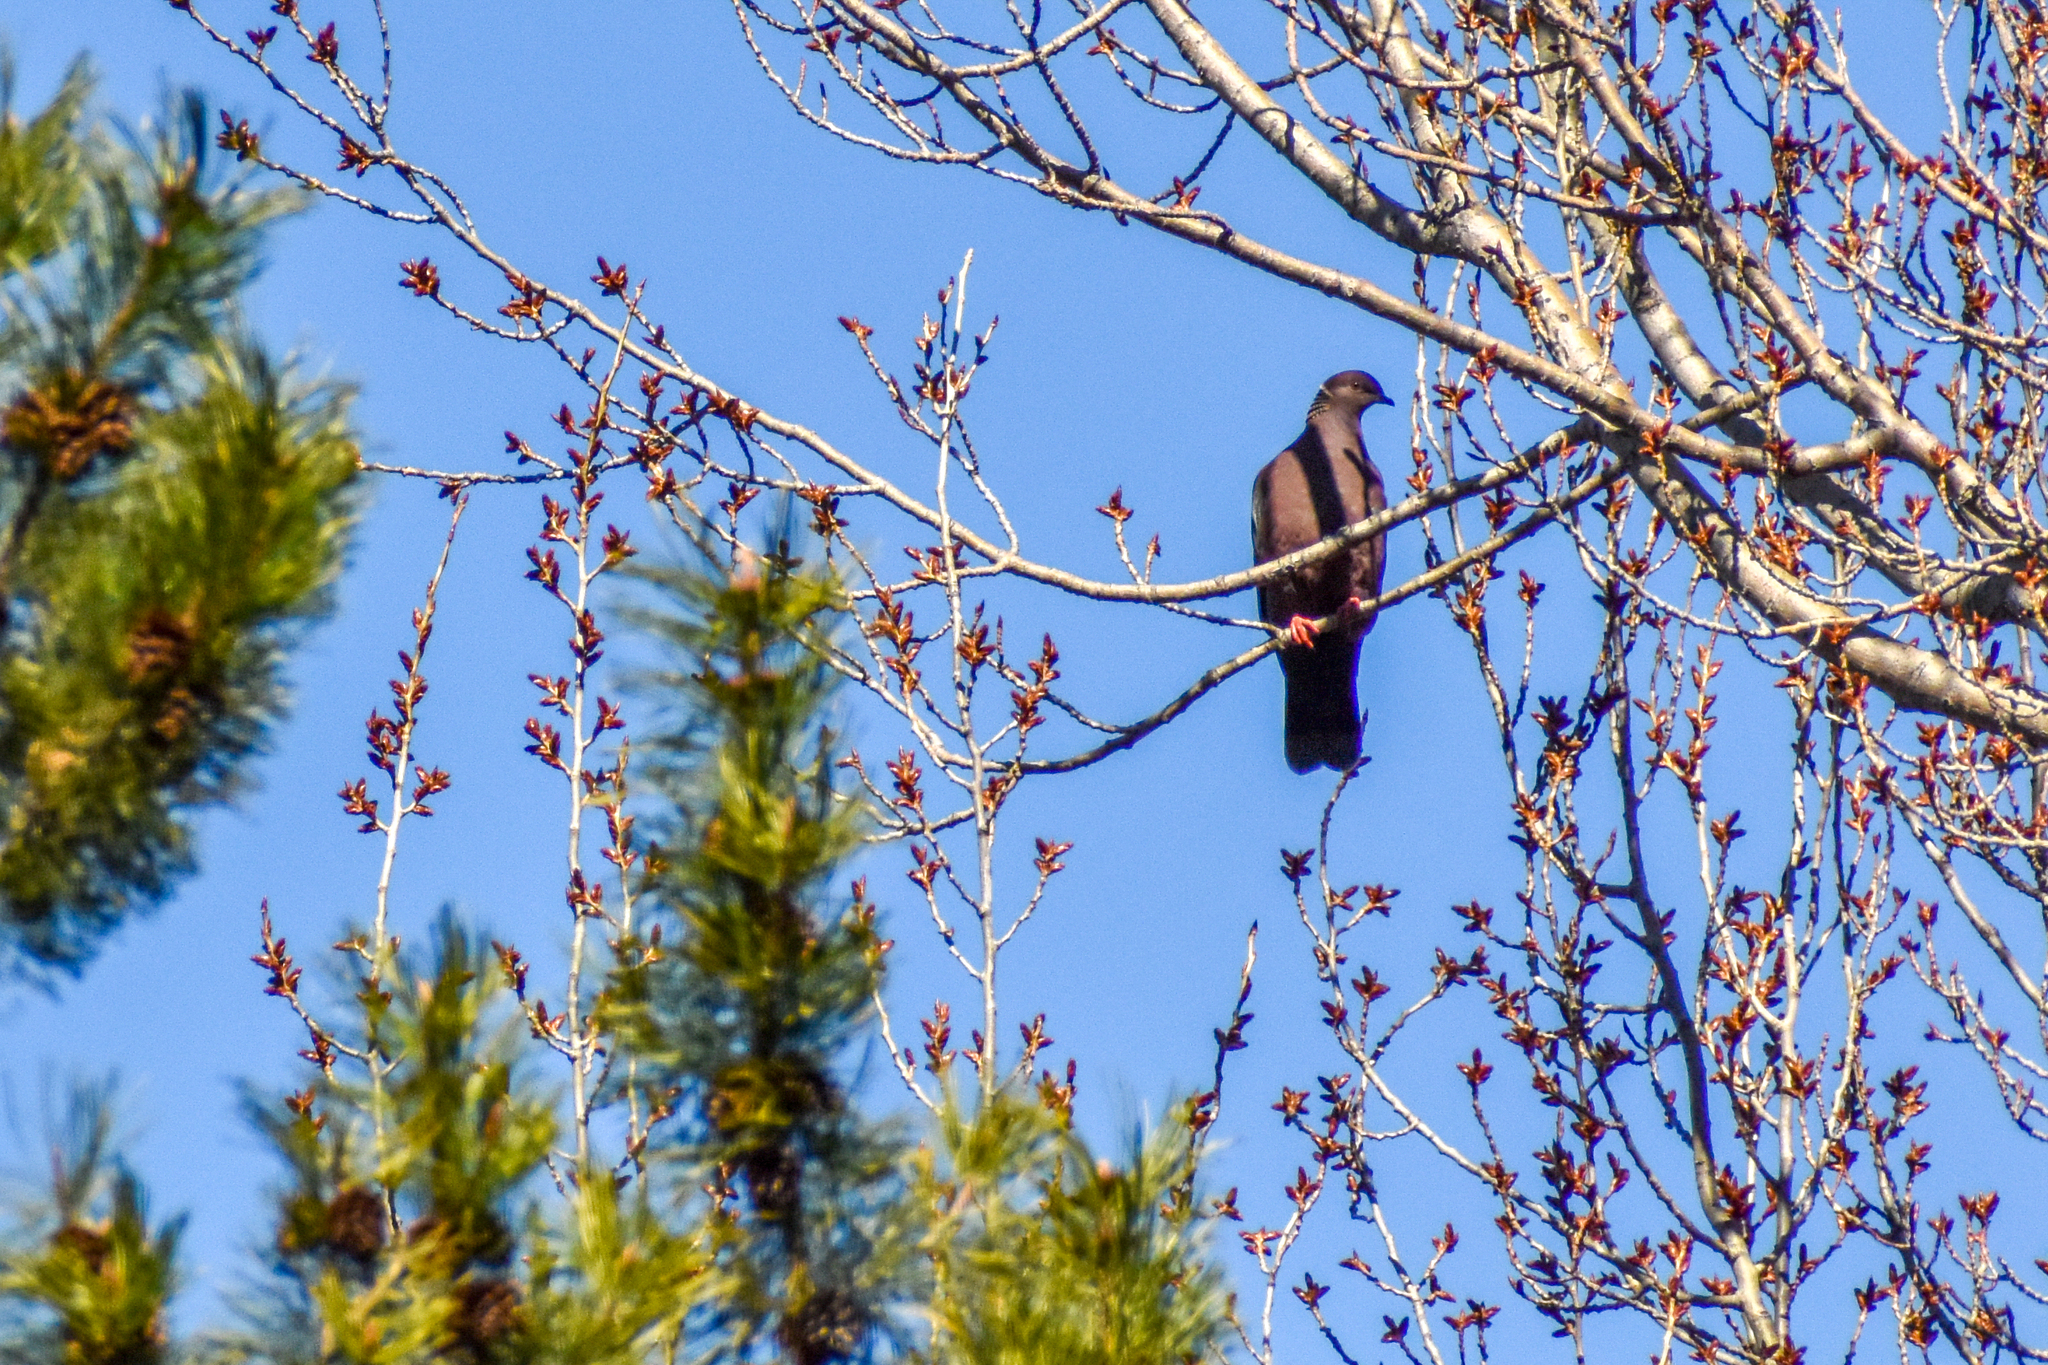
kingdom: Animalia
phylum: Chordata
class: Aves
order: Columbiformes
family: Columbidae
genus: Patagioenas
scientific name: Patagioenas araucana
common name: Chilean pigeon
